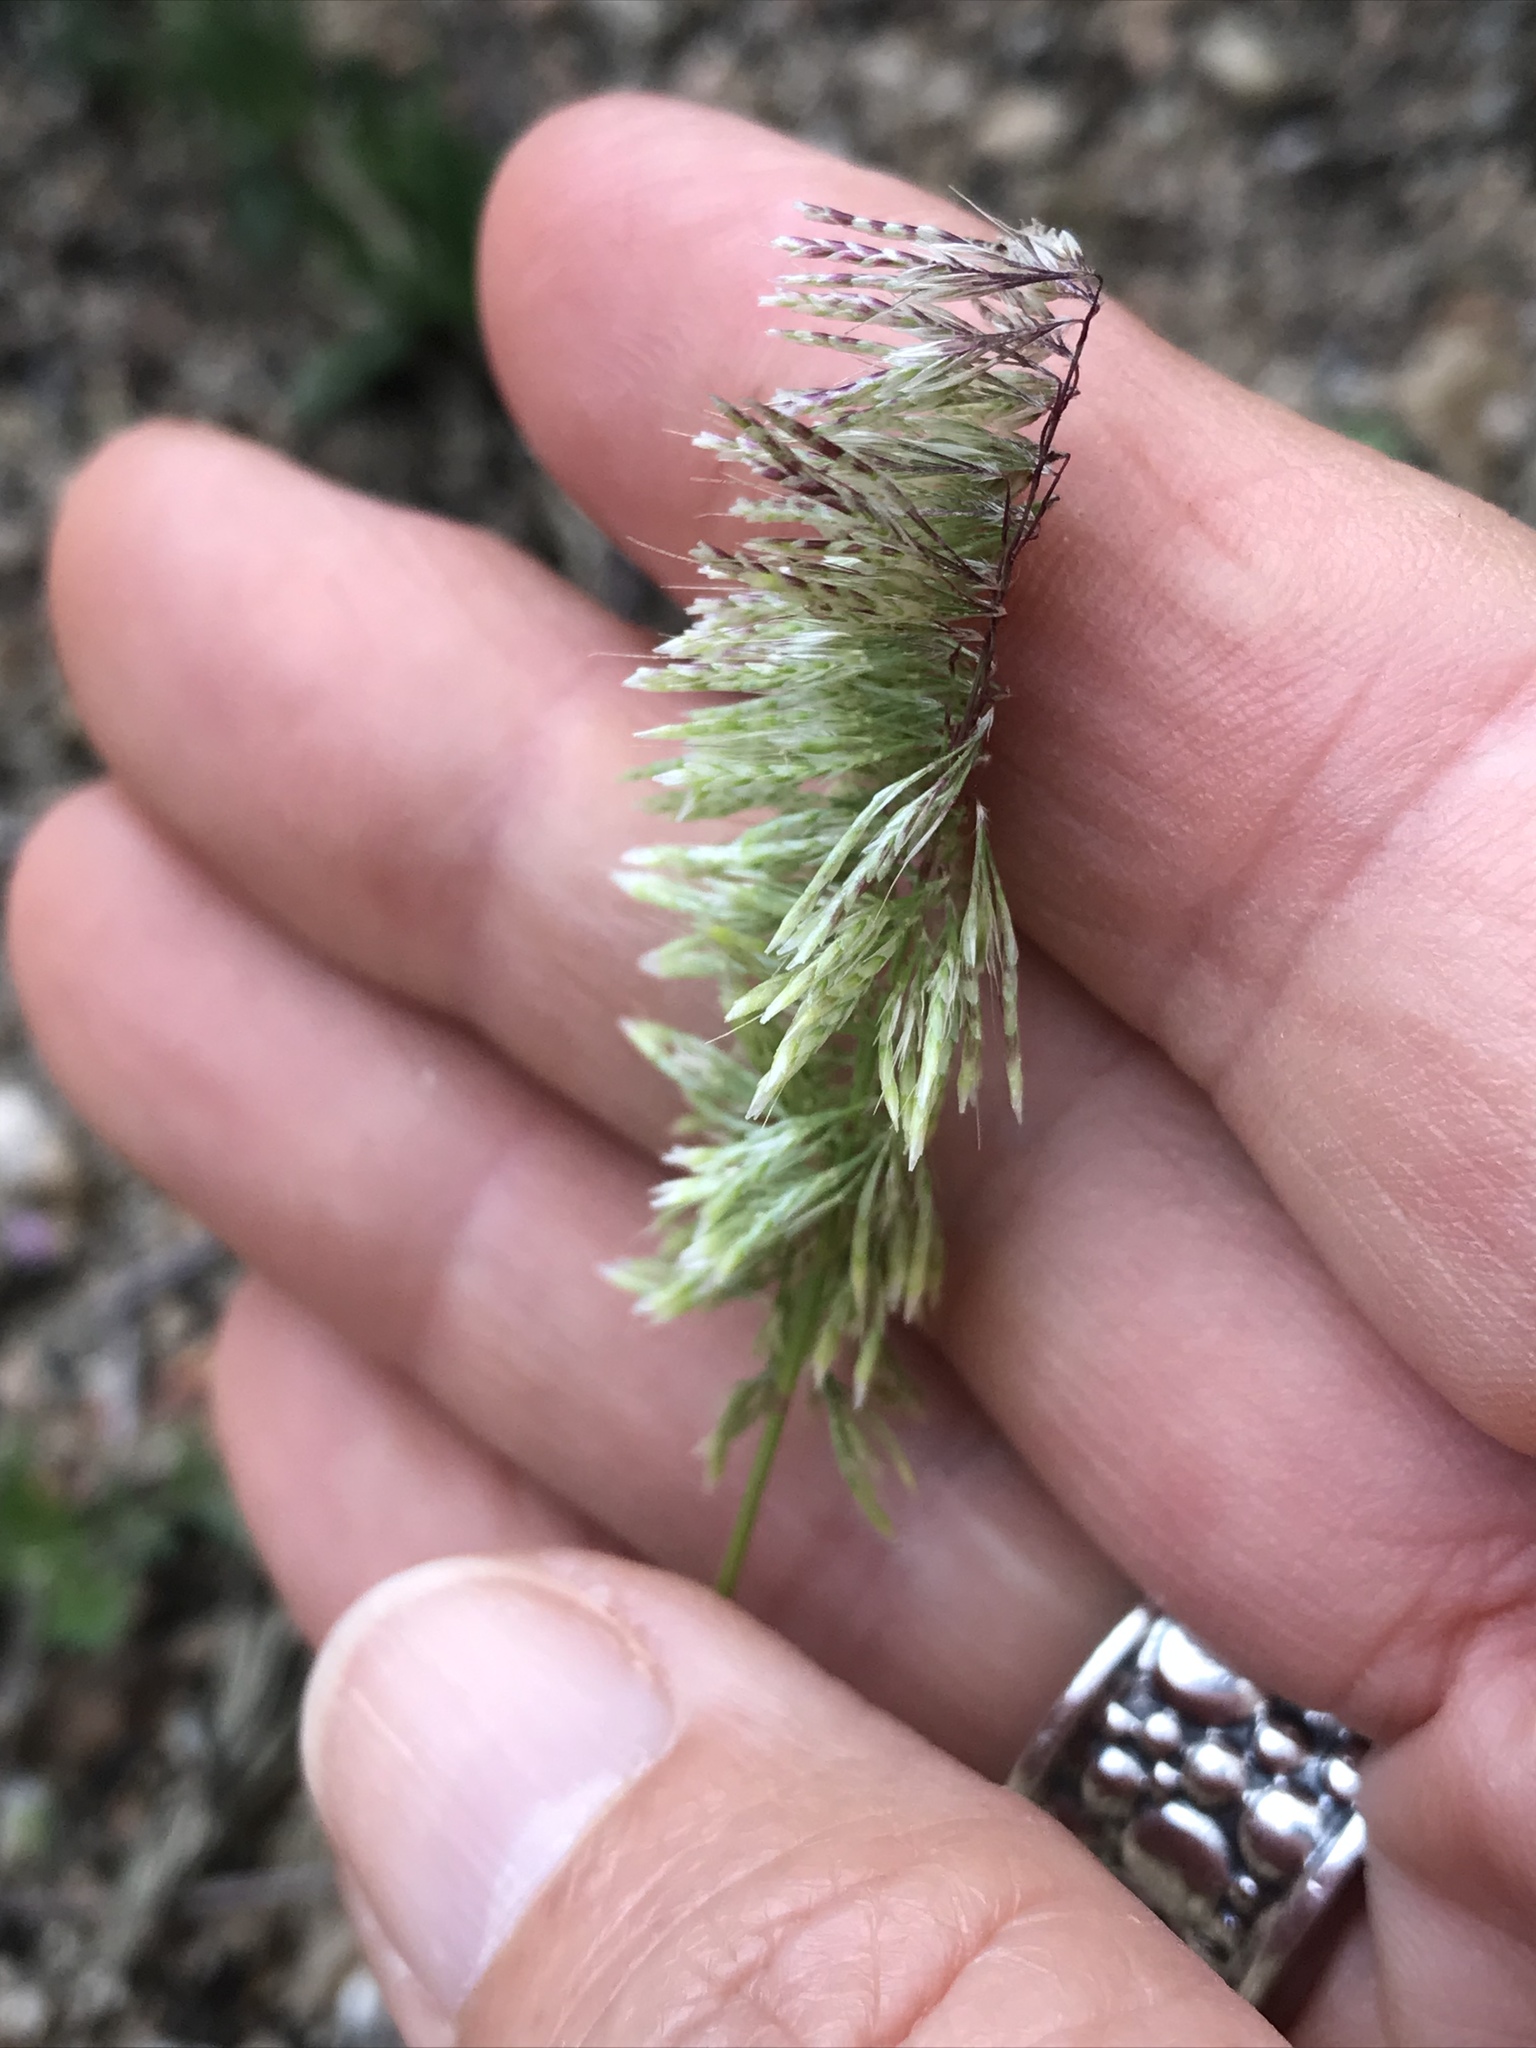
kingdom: Plantae
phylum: Tracheophyta
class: Liliopsida
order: Poales
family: Poaceae
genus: Lamarckia
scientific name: Lamarckia aurea
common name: Golden dog's-tail
